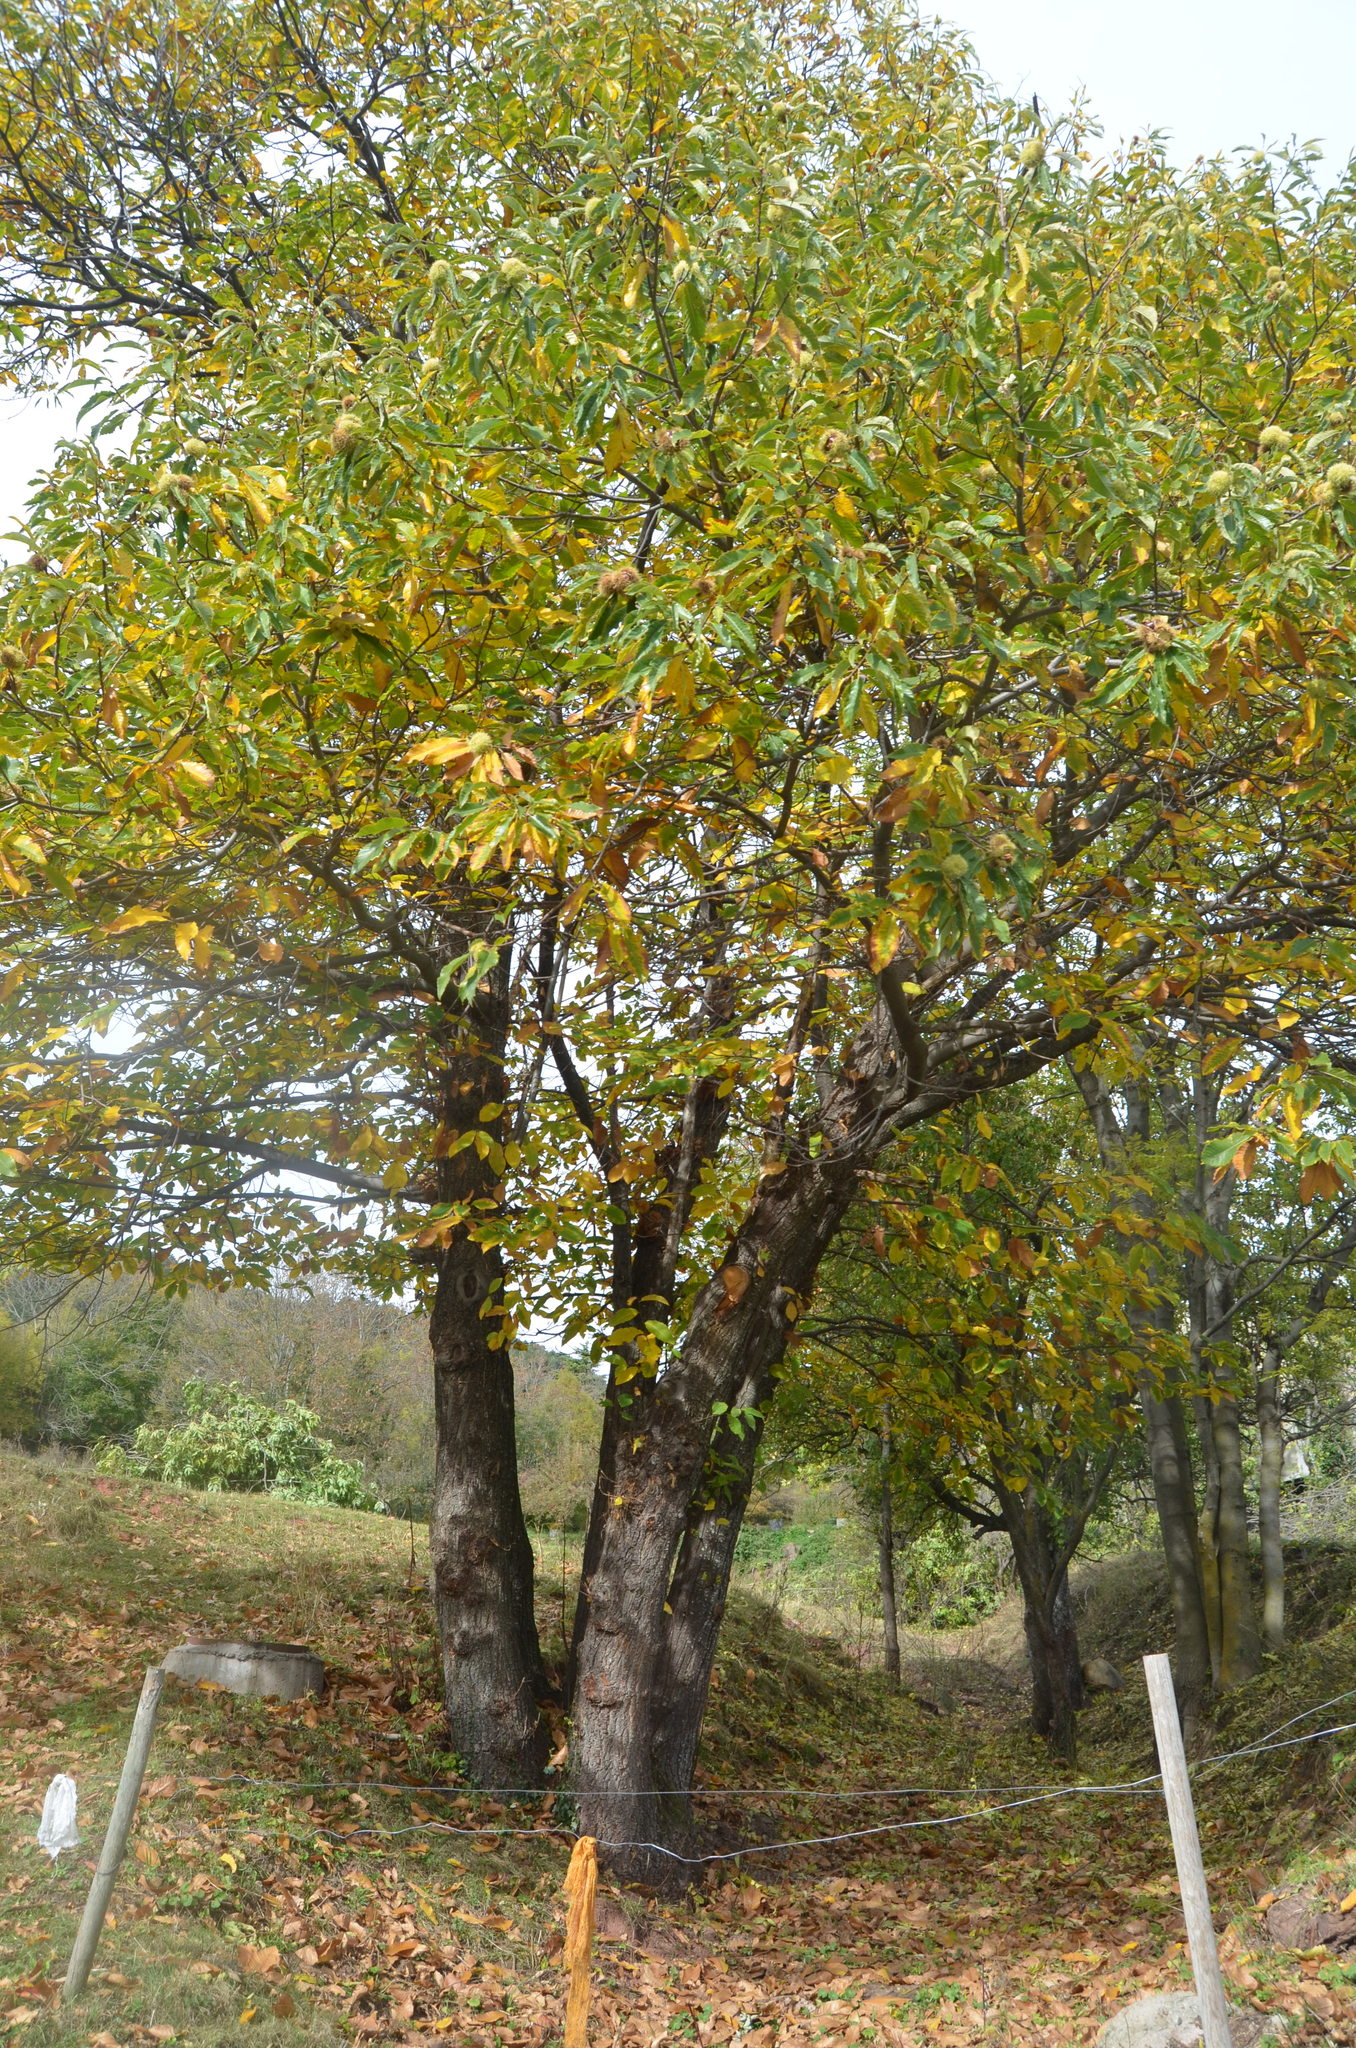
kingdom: Plantae
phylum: Tracheophyta
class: Magnoliopsida
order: Fagales
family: Fagaceae
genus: Castanea
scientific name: Castanea sativa
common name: Sweet chestnut
